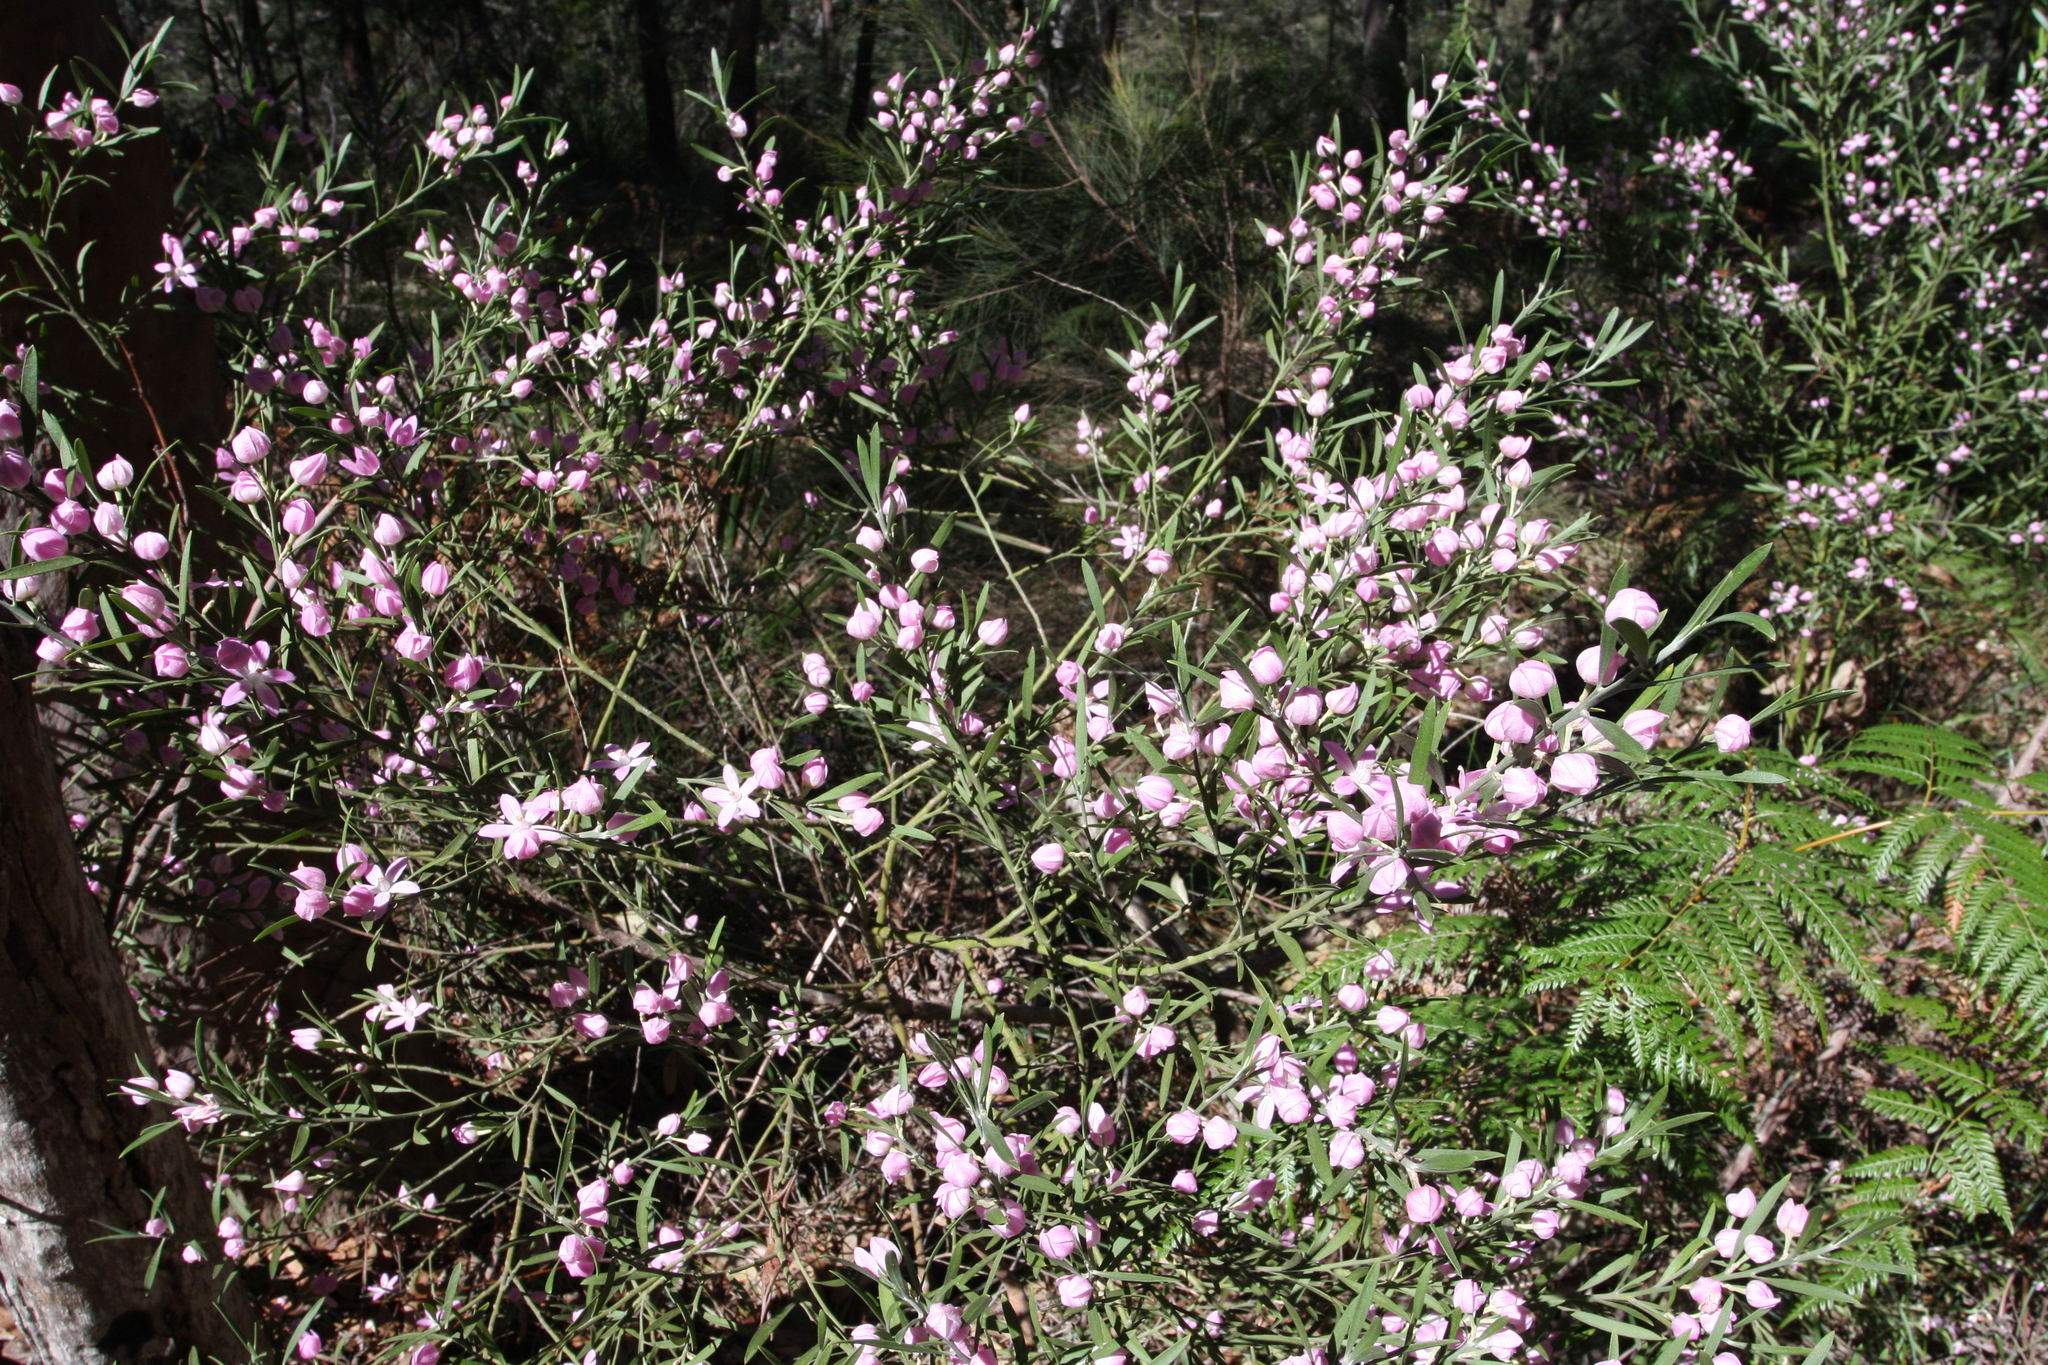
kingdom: Plantae
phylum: Tracheophyta
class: Magnoliopsida
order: Sapindales
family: Rutaceae
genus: Eriostemon
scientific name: Eriostemon australasius
